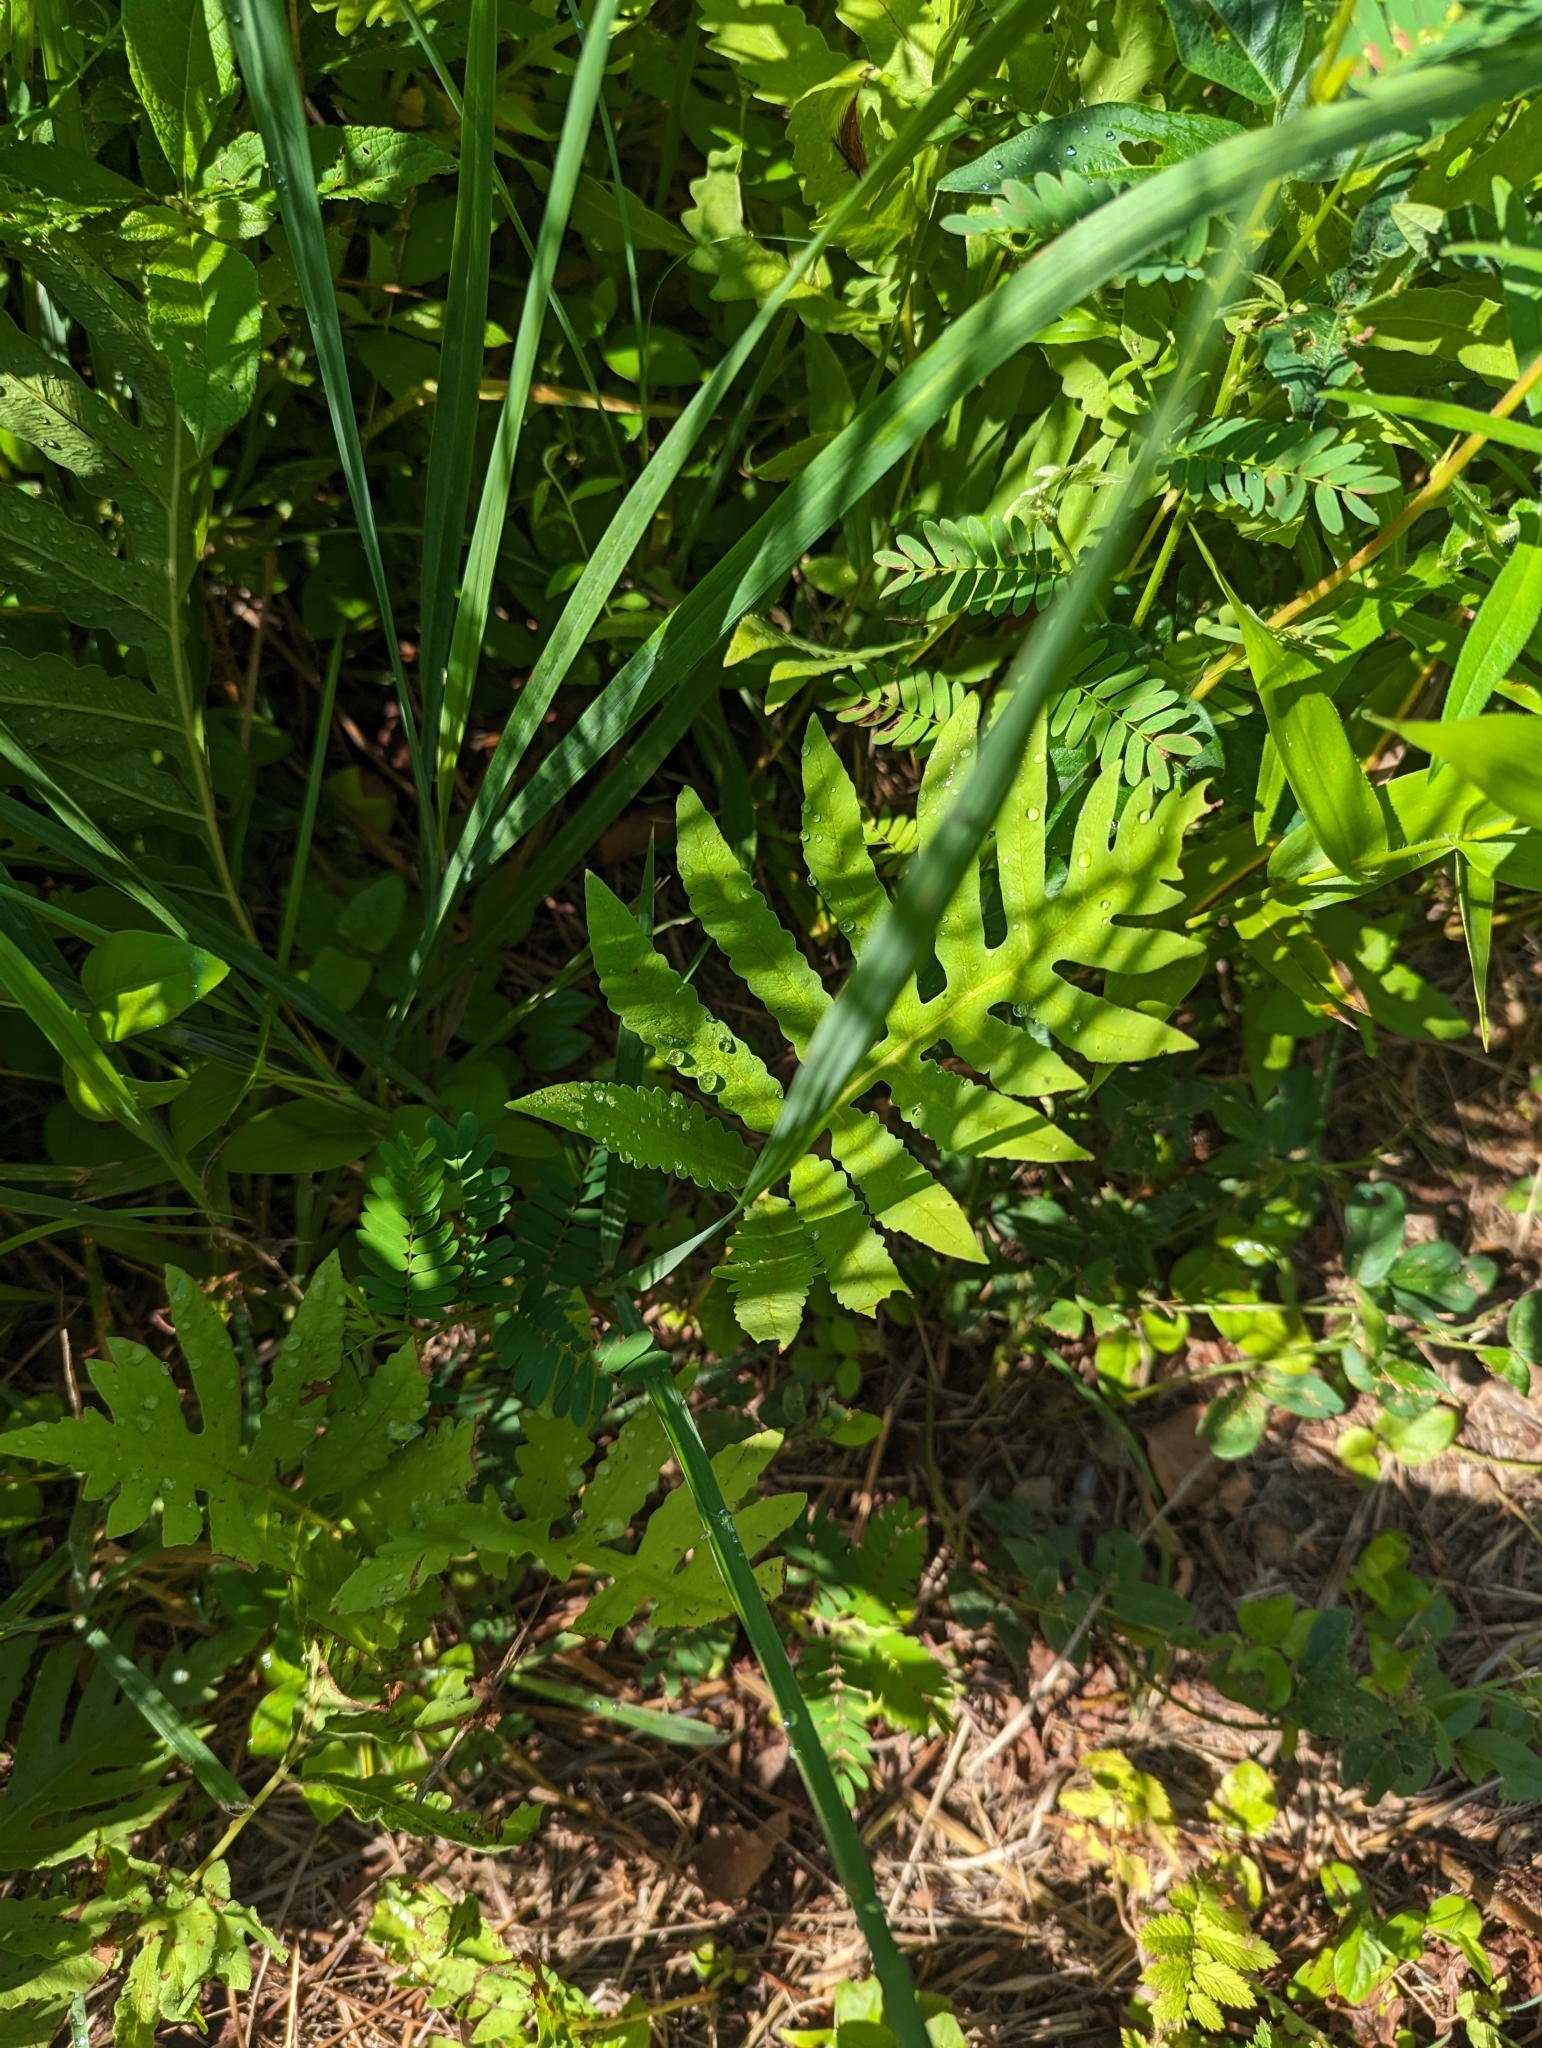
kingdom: Plantae
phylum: Tracheophyta
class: Polypodiopsida
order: Polypodiales
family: Onocleaceae
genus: Onoclea
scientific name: Onoclea sensibilis
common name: Sensitive fern
